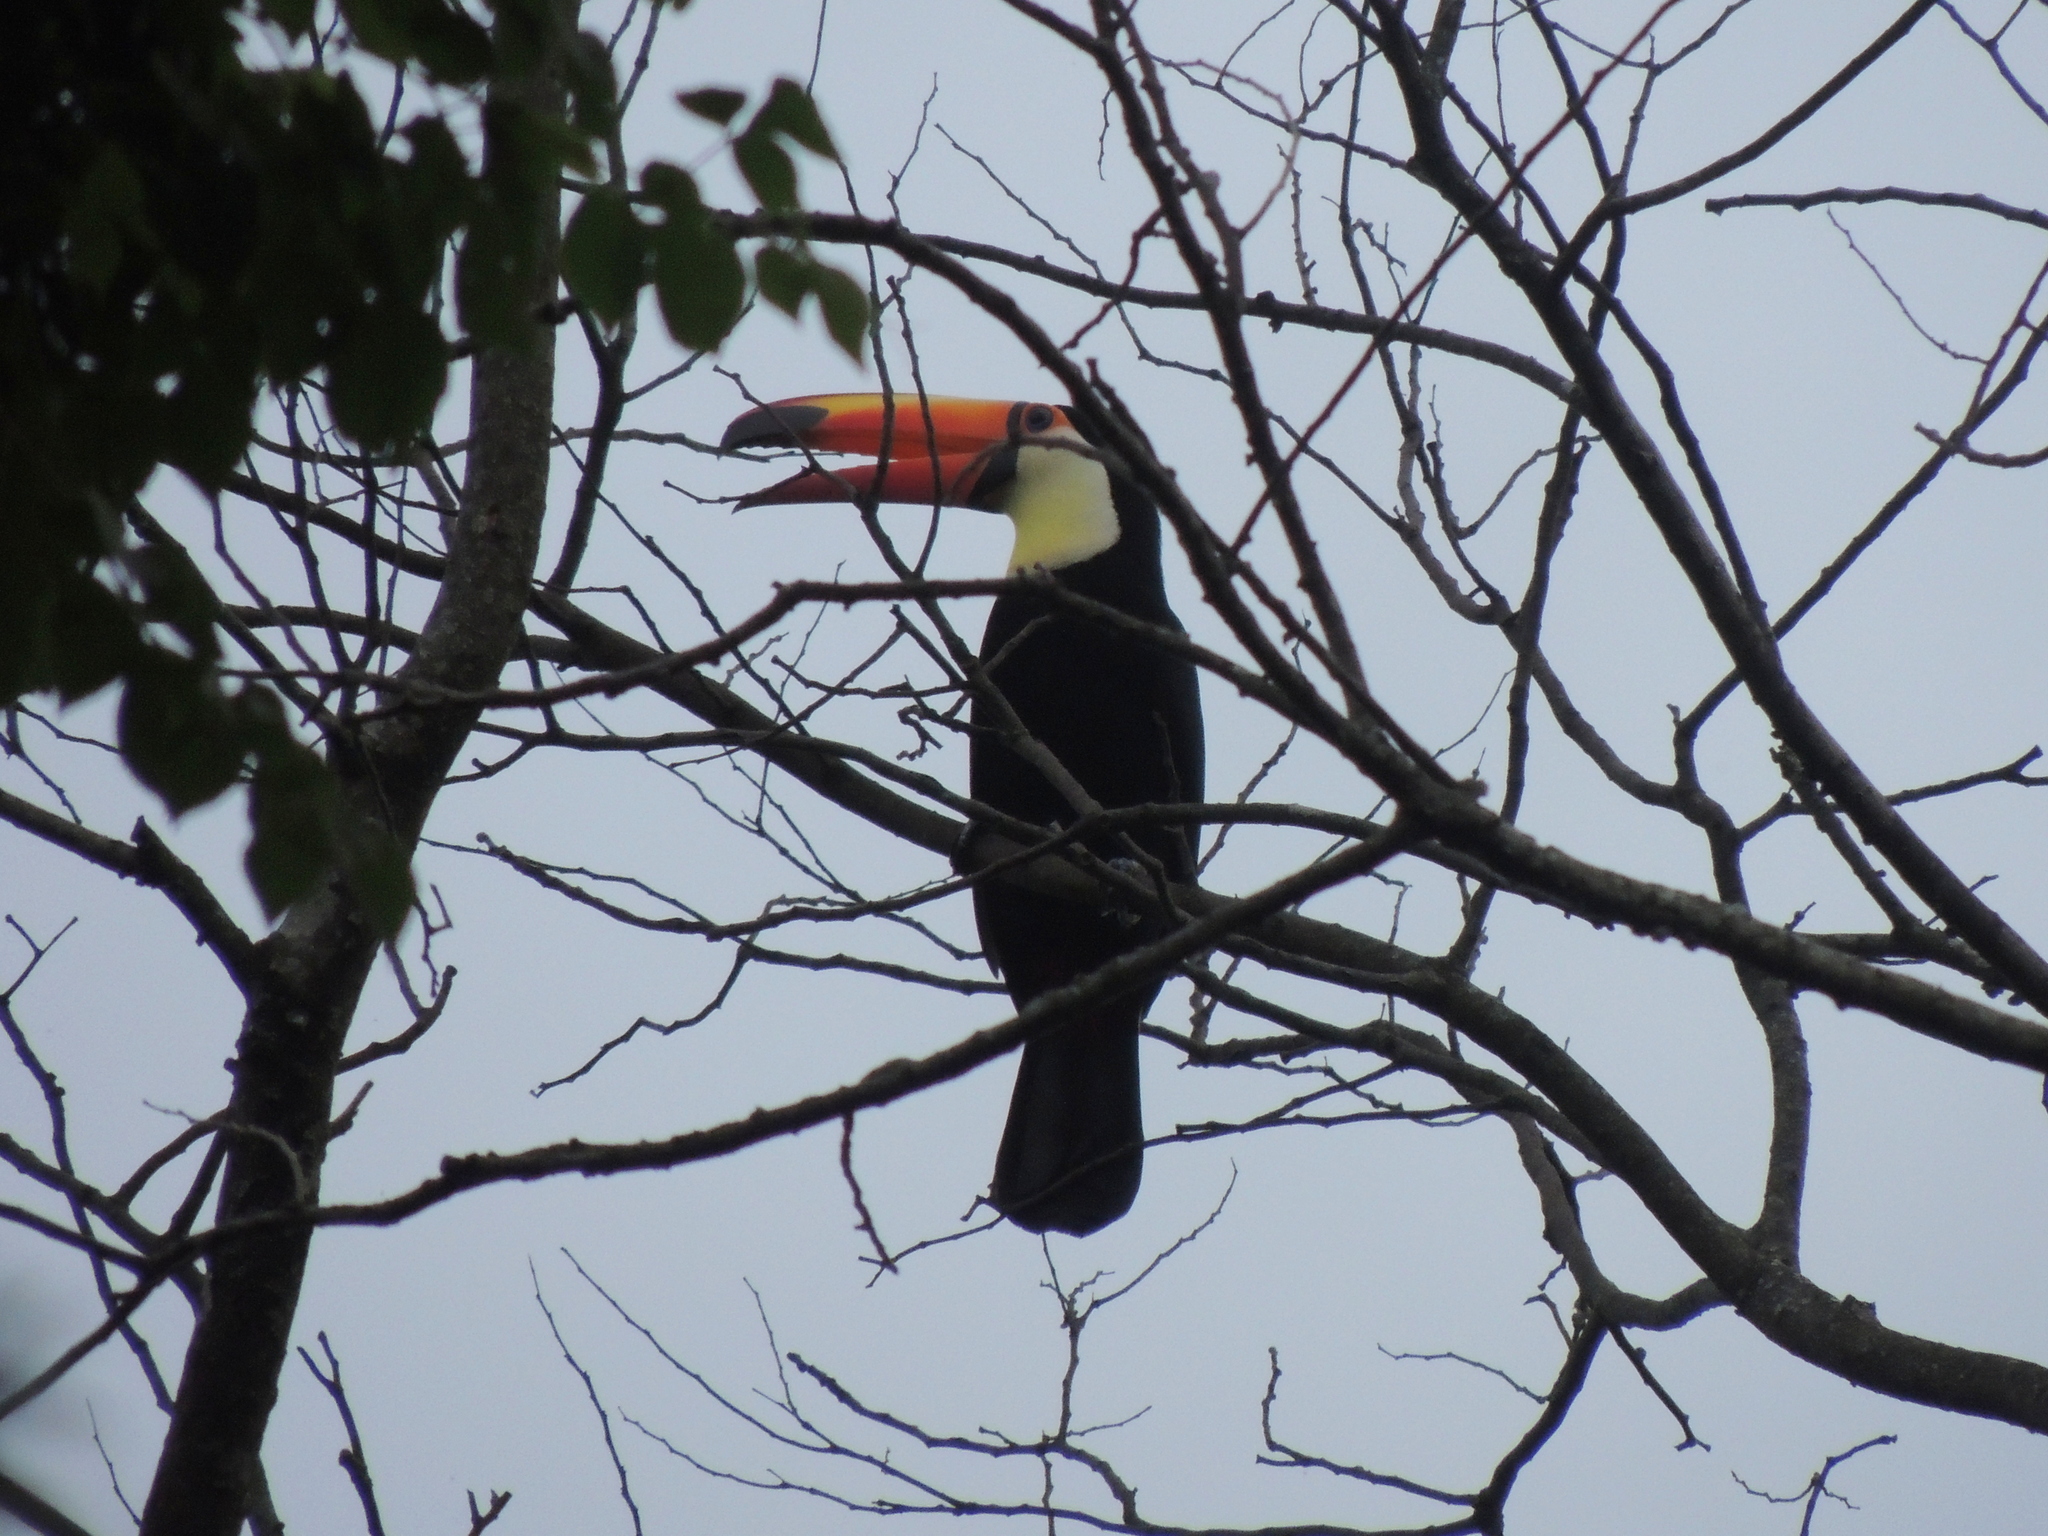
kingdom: Animalia
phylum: Chordata
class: Aves
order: Piciformes
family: Ramphastidae
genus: Ramphastos
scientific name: Ramphastos toco
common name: Toco toucan
